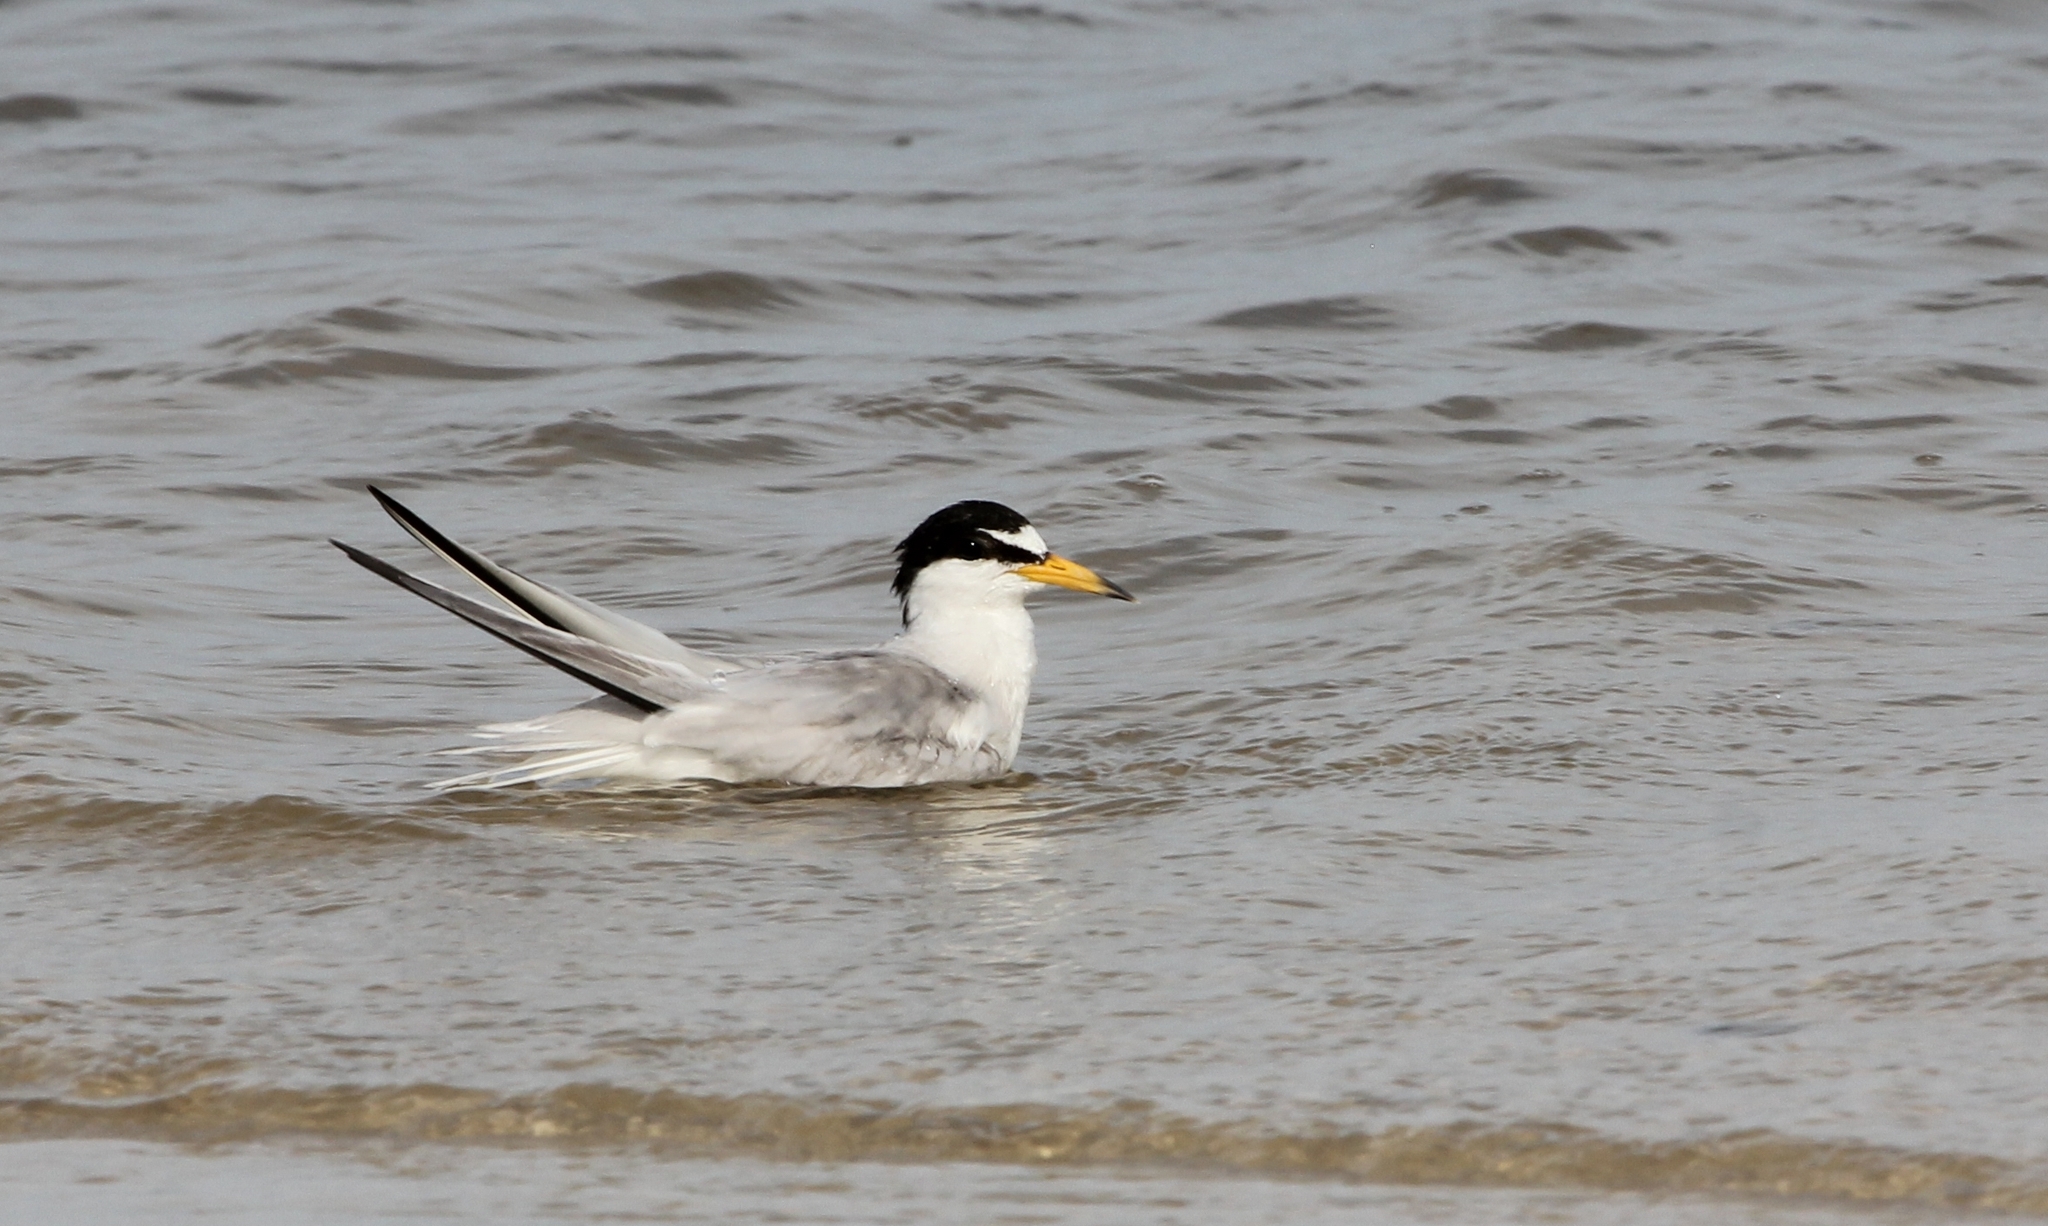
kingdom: Animalia
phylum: Chordata
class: Aves
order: Charadriiformes
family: Laridae
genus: Sternula
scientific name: Sternula antillarum
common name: Least tern
